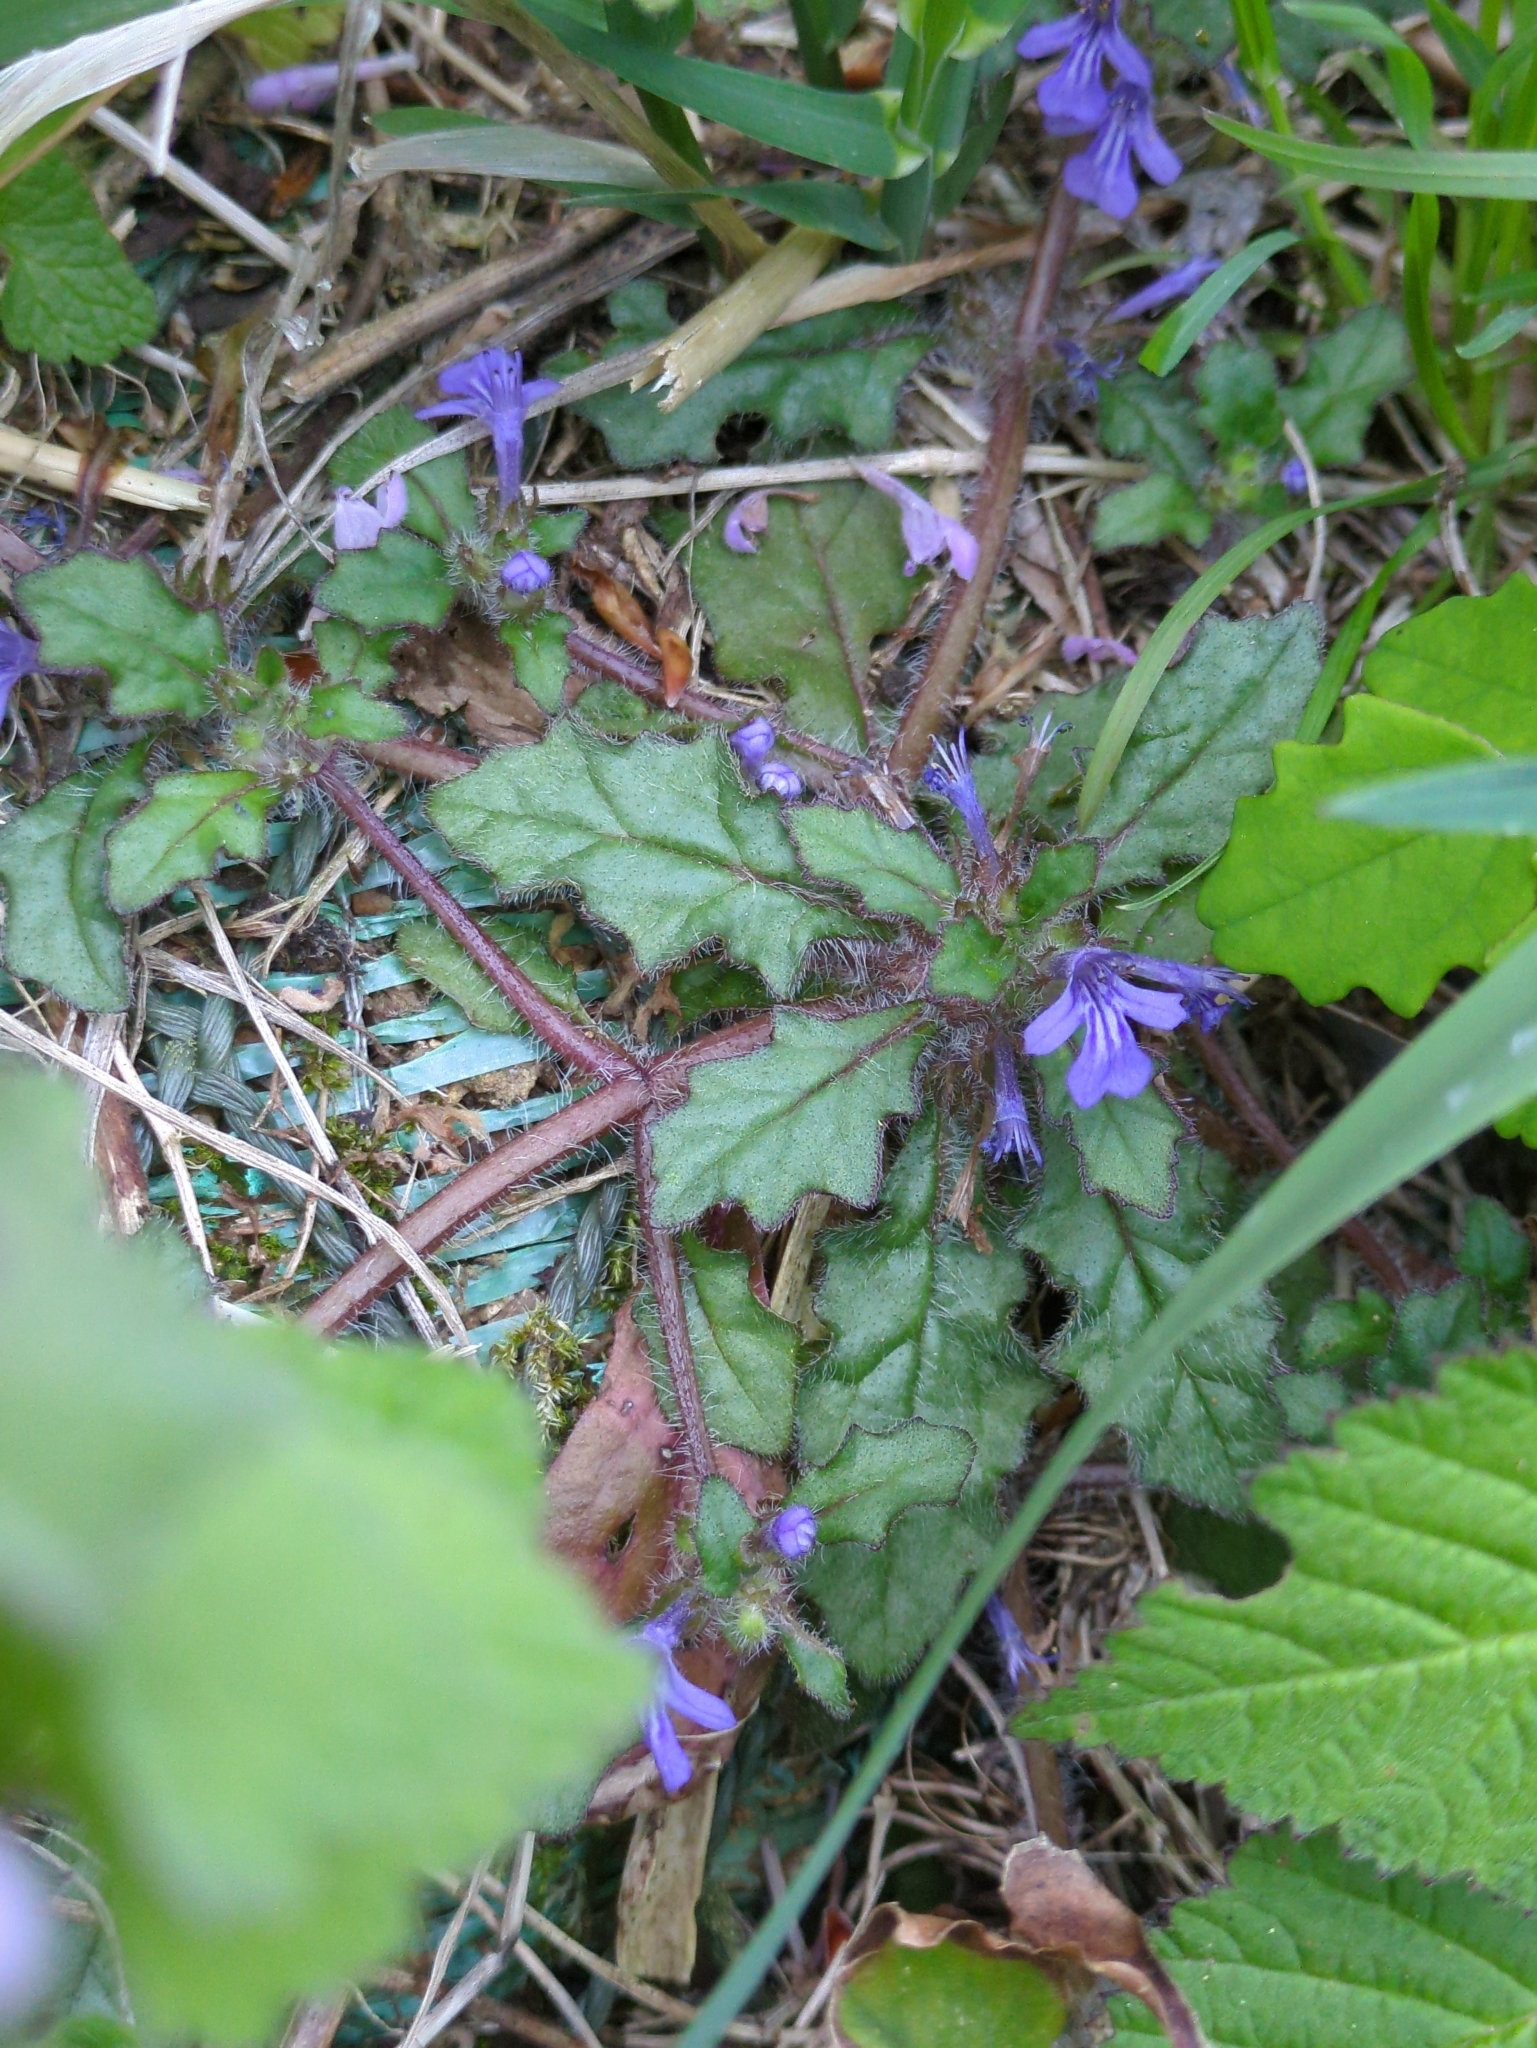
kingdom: Plantae
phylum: Tracheophyta
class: Magnoliopsida
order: Lamiales
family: Lamiaceae
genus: Ajuga
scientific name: Ajuga decumbens
